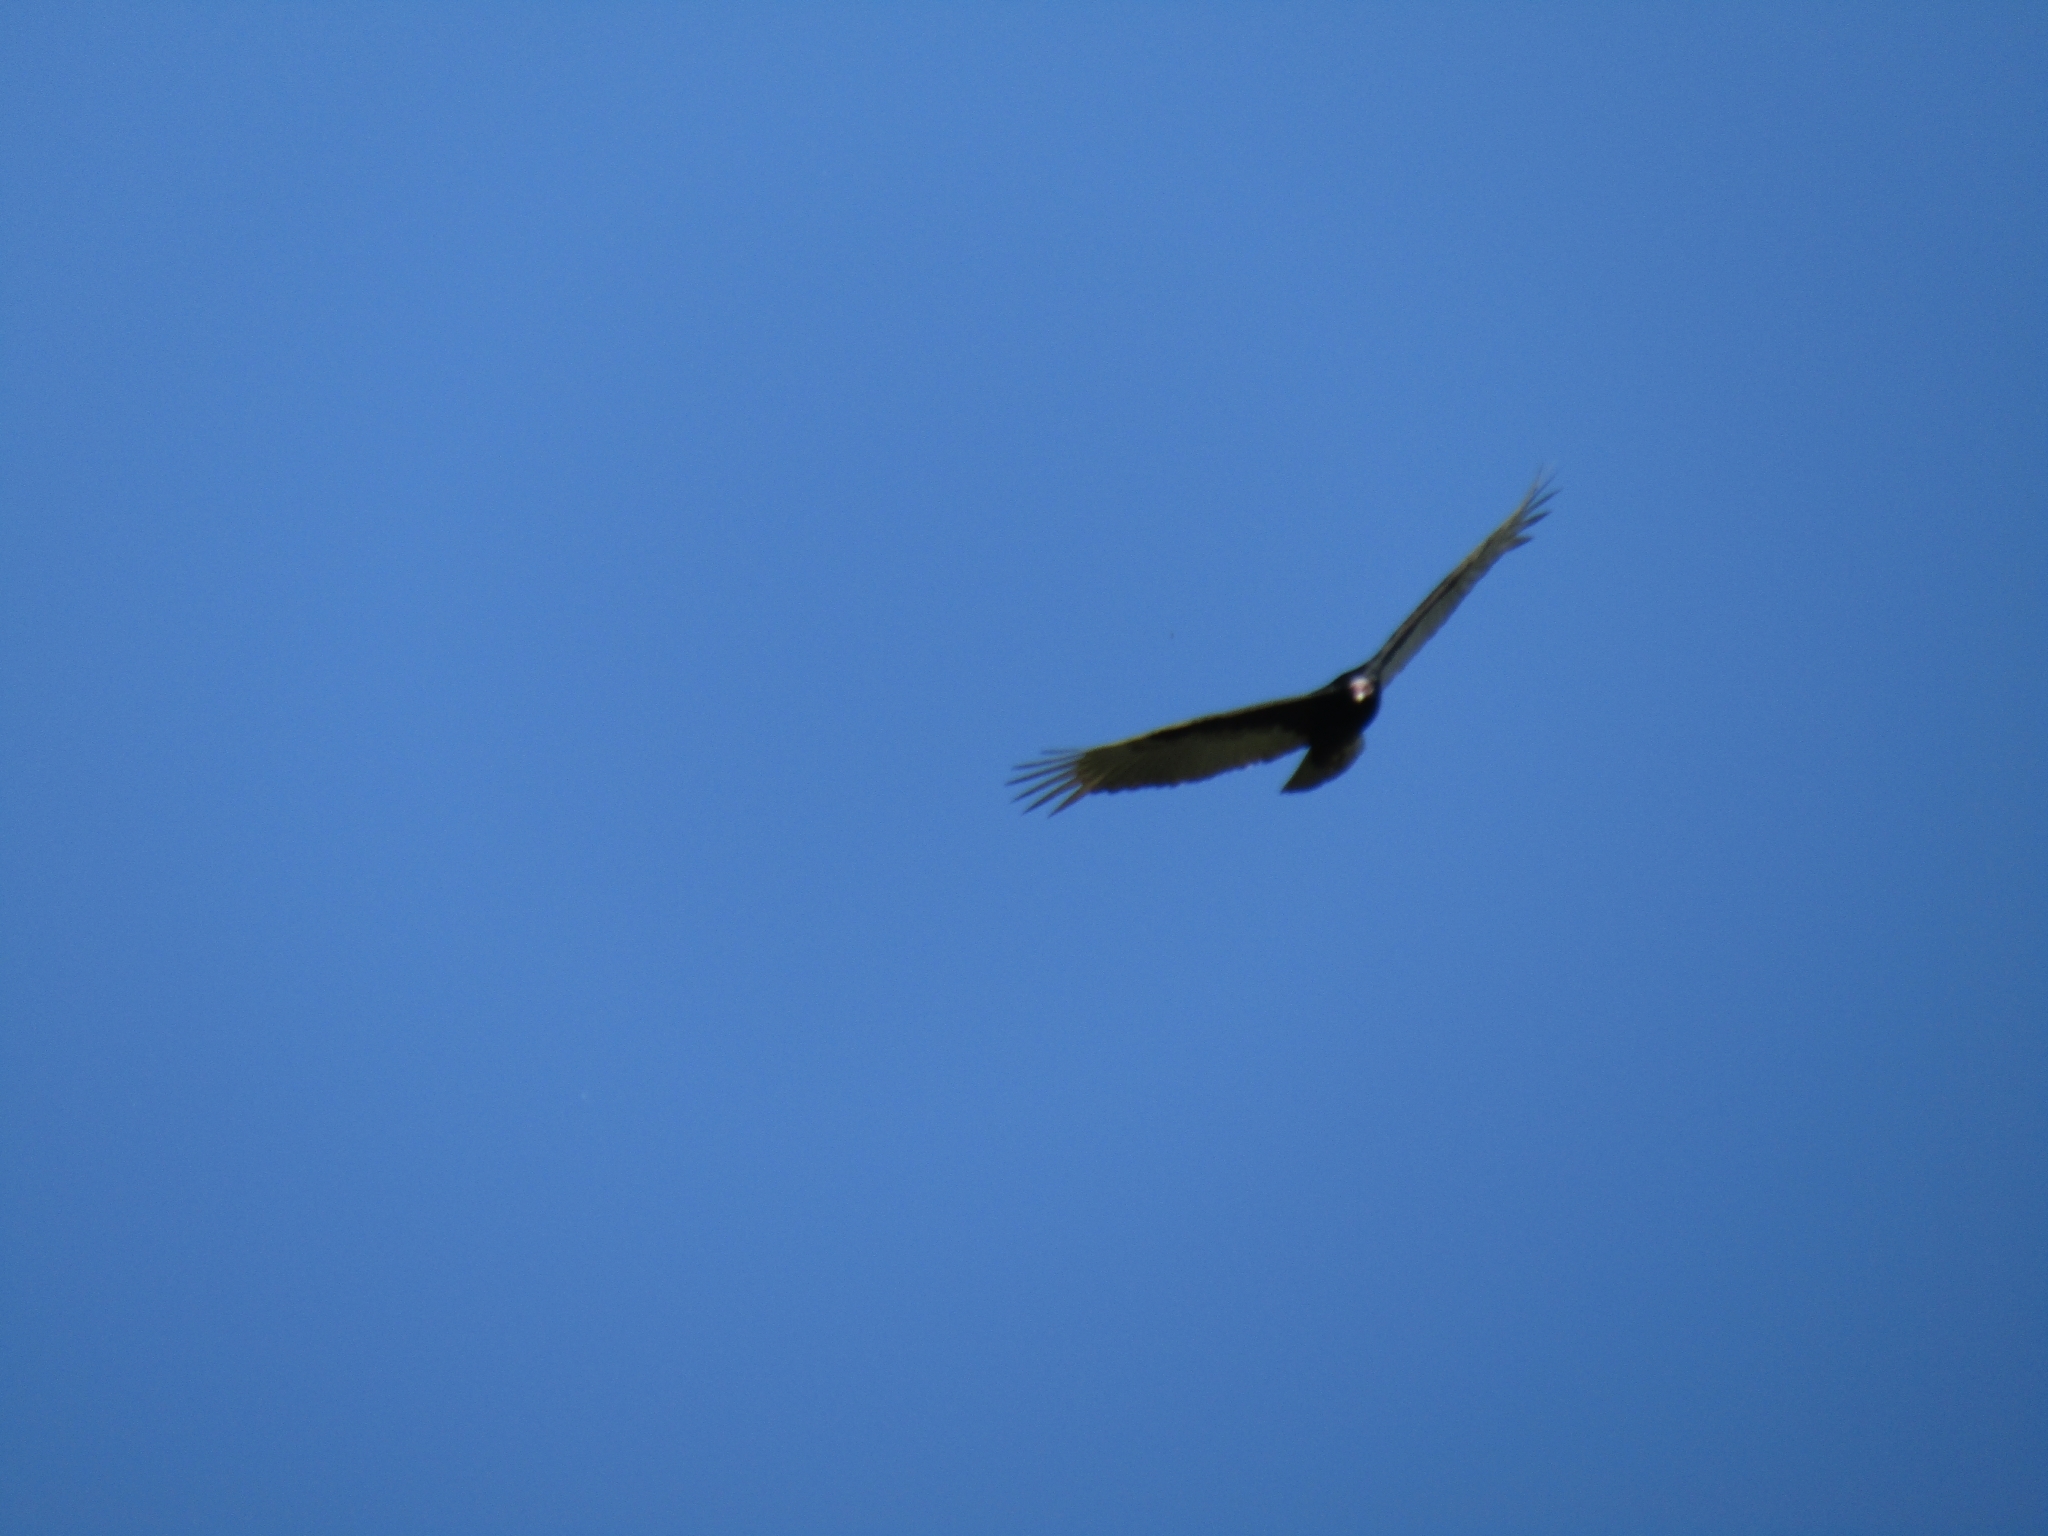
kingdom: Animalia
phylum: Chordata
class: Aves
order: Accipitriformes
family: Cathartidae
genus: Cathartes
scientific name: Cathartes aura
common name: Turkey vulture
